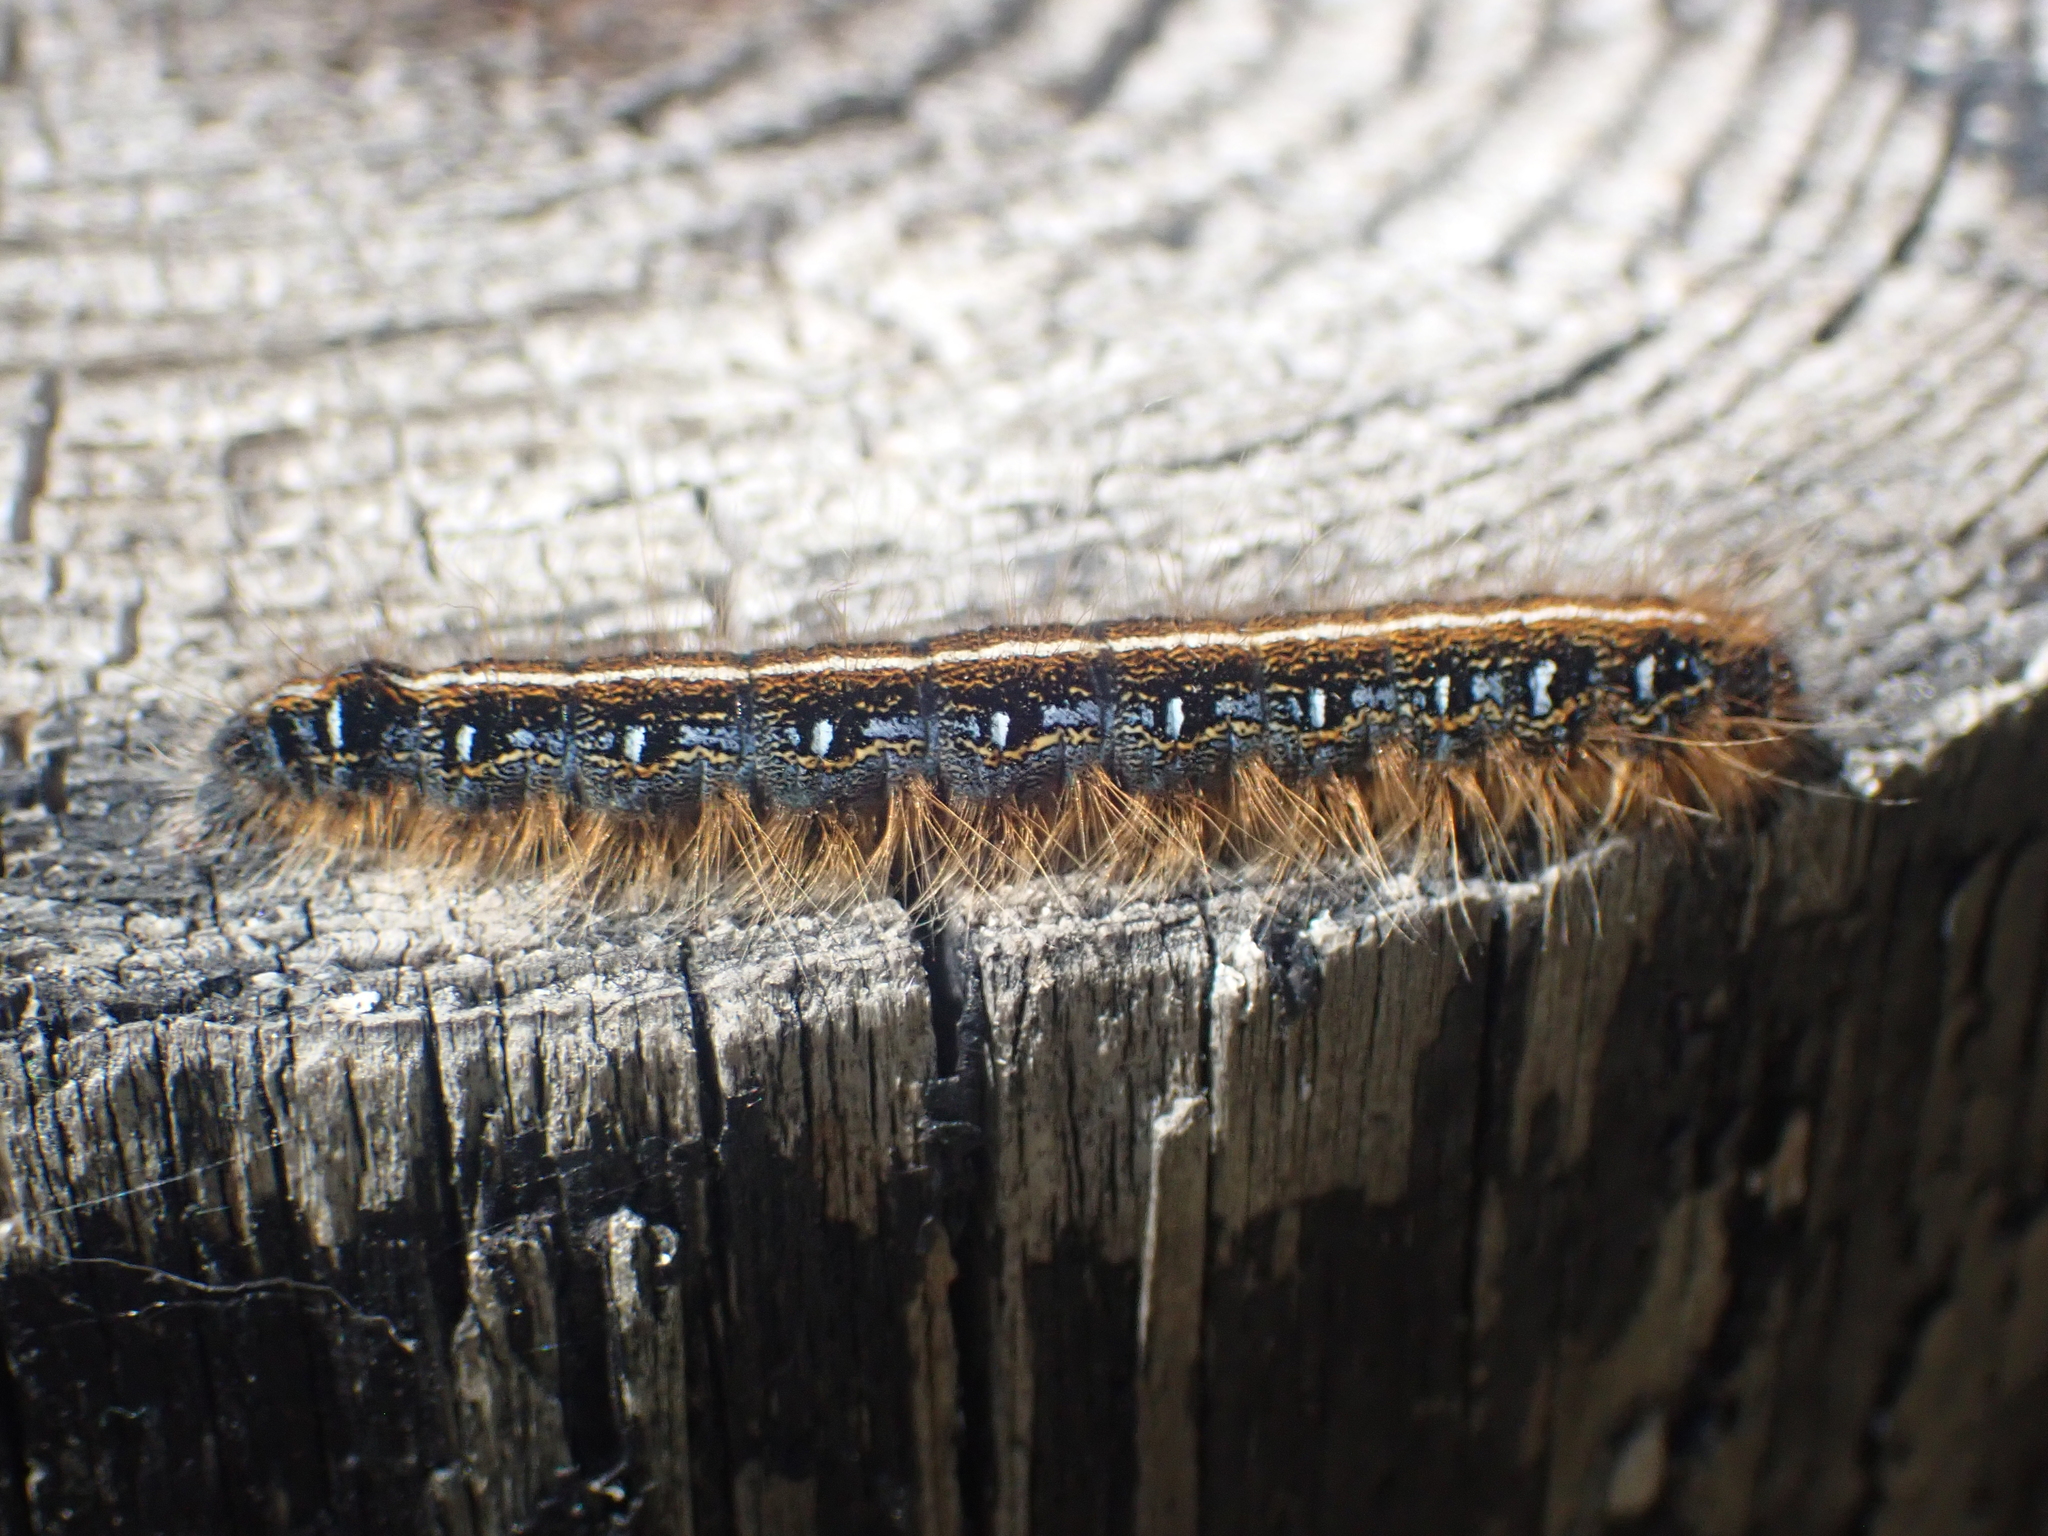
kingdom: Animalia
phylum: Arthropoda
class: Insecta
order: Lepidoptera
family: Lasiocampidae
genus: Malacosoma
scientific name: Malacosoma americana
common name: Eastern tent caterpillar moth
